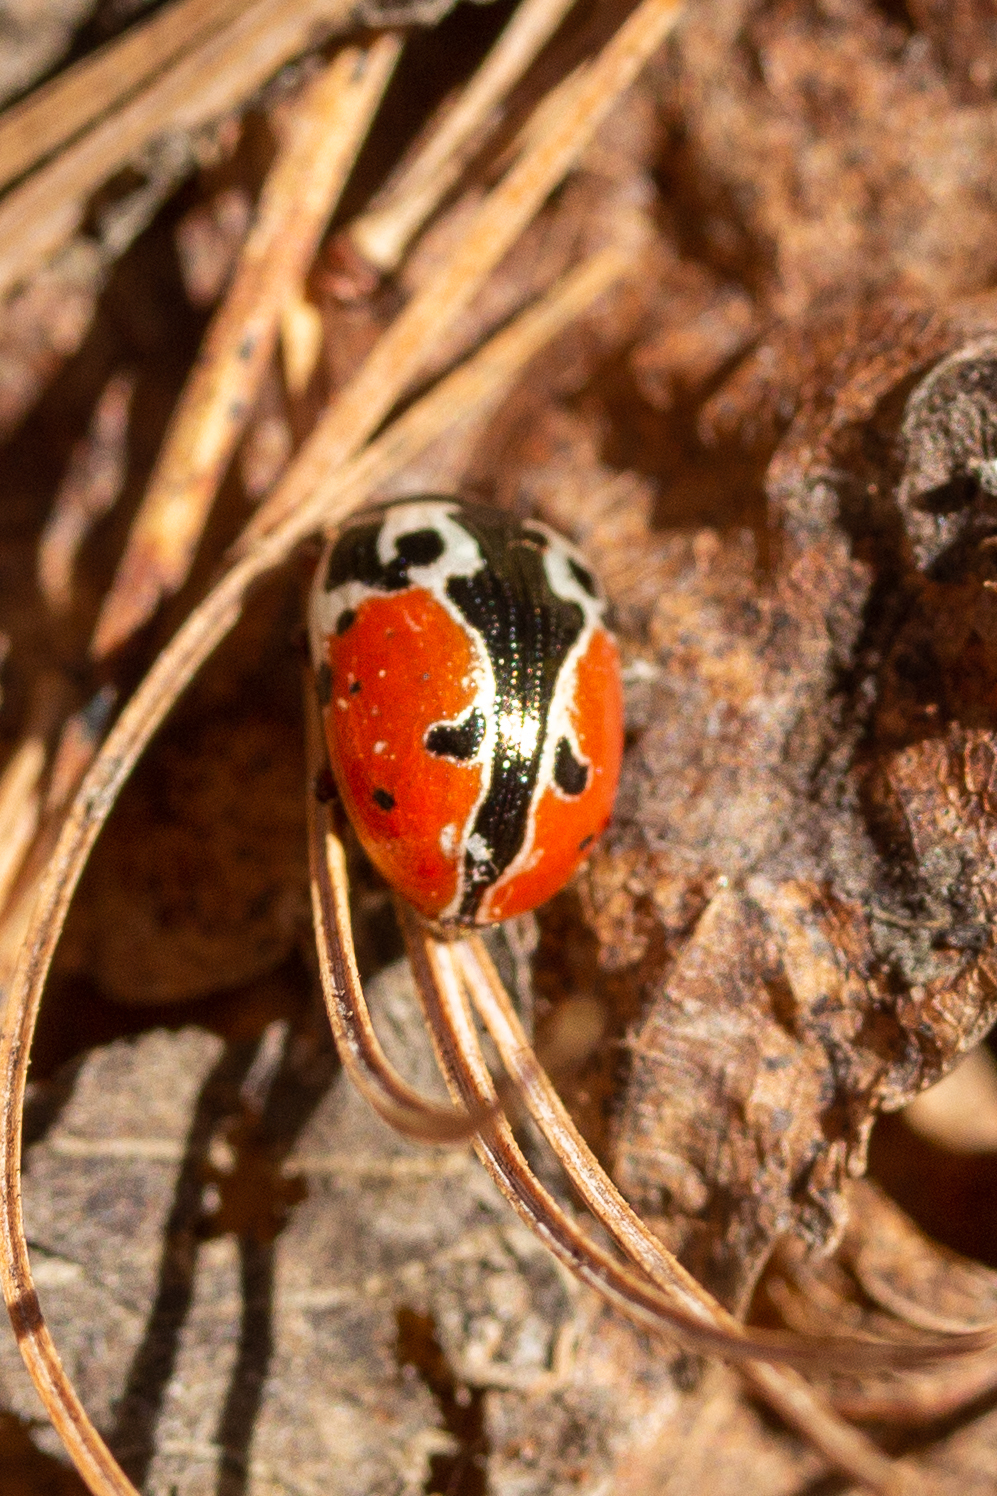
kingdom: Animalia
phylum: Arthropoda
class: Insecta
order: Coleoptera
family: Chrysomelidae
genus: Calligrapha
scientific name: Calligrapha rowena
